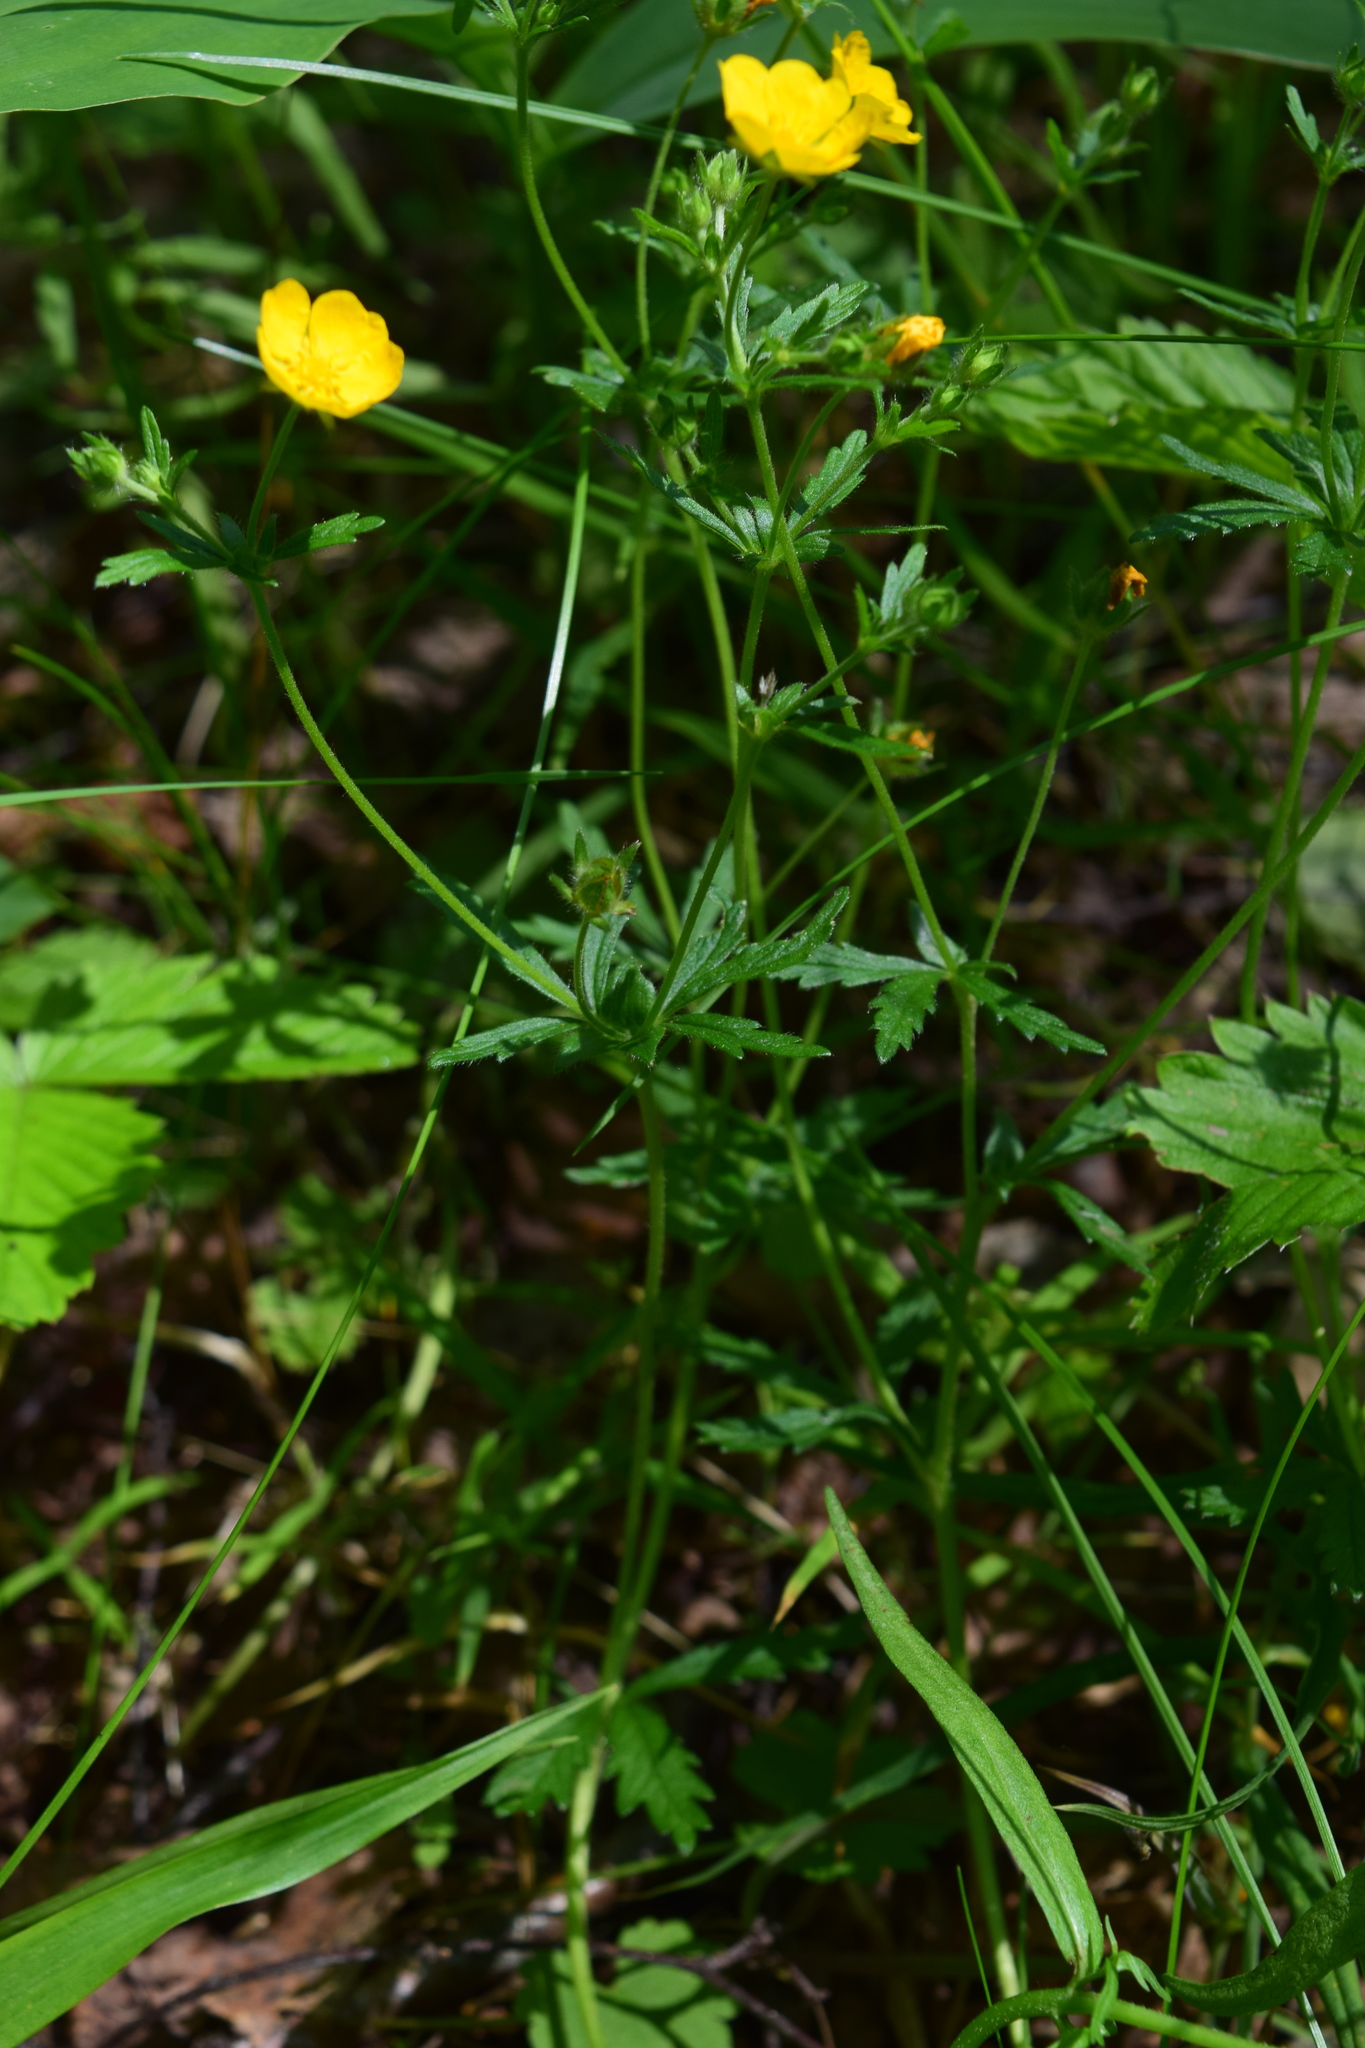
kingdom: Plantae
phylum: Tracheophyta
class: Magnoliopsida
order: Rosales
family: Rosaceae
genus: Potentilla
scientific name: Potentilla thuringiaca
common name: European cinquefoil
